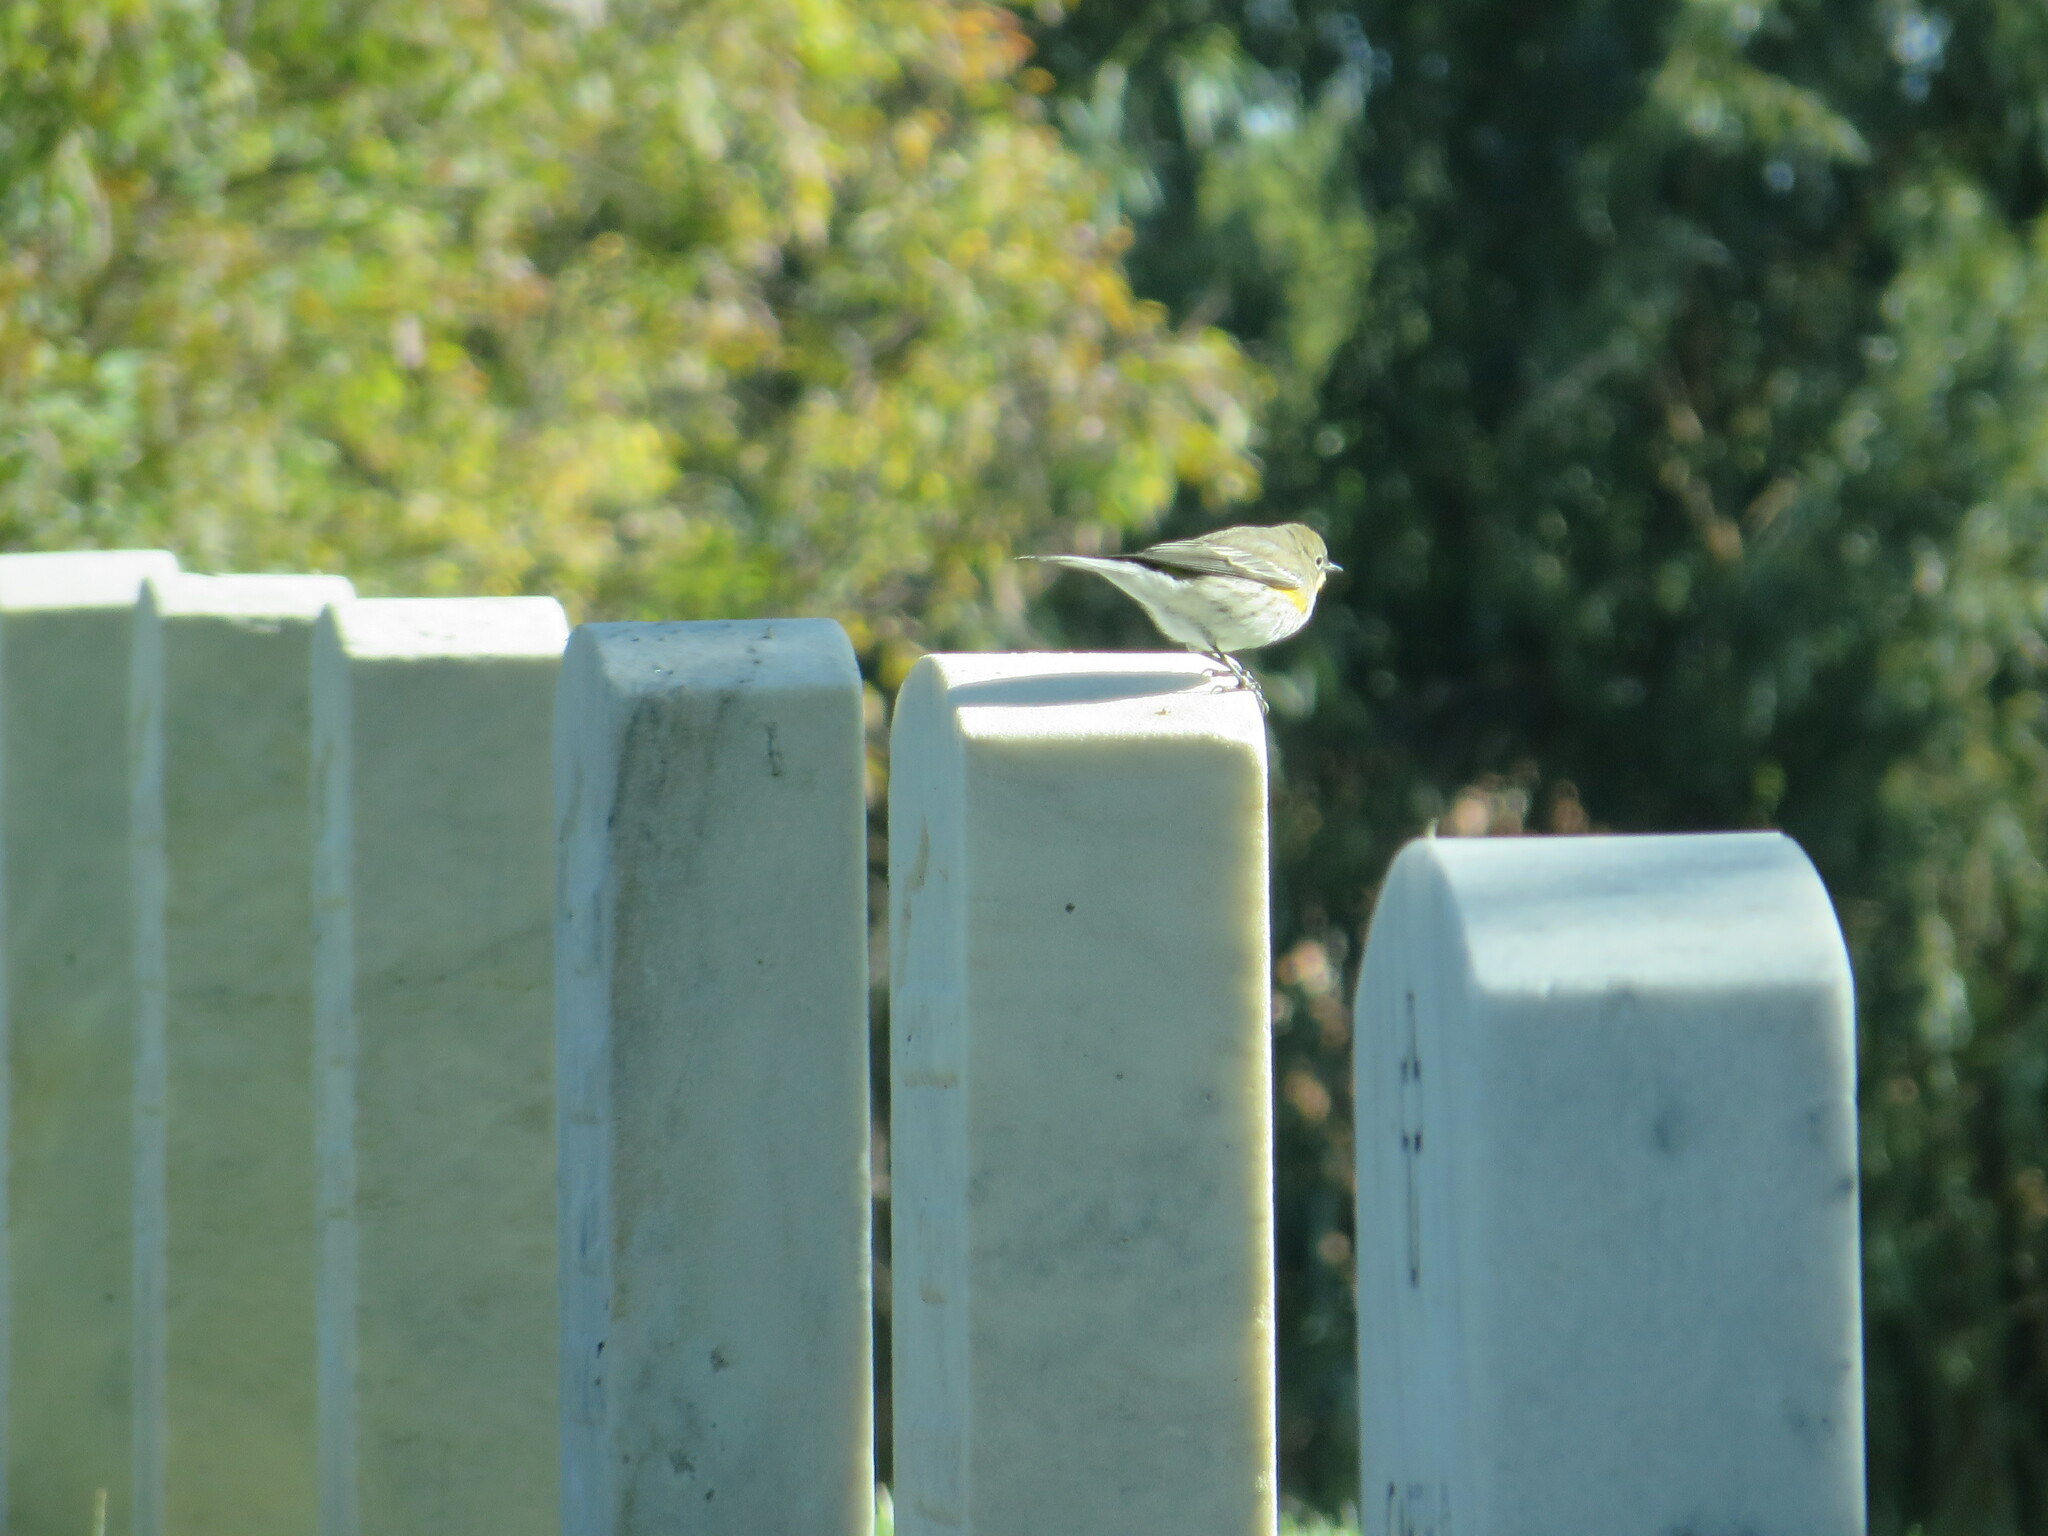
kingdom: Animalia
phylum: Chordata
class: Aves
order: Passeriformes
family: Parulidae
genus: Setophaga
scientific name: Setophaga coronata
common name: Myrtle warbler
